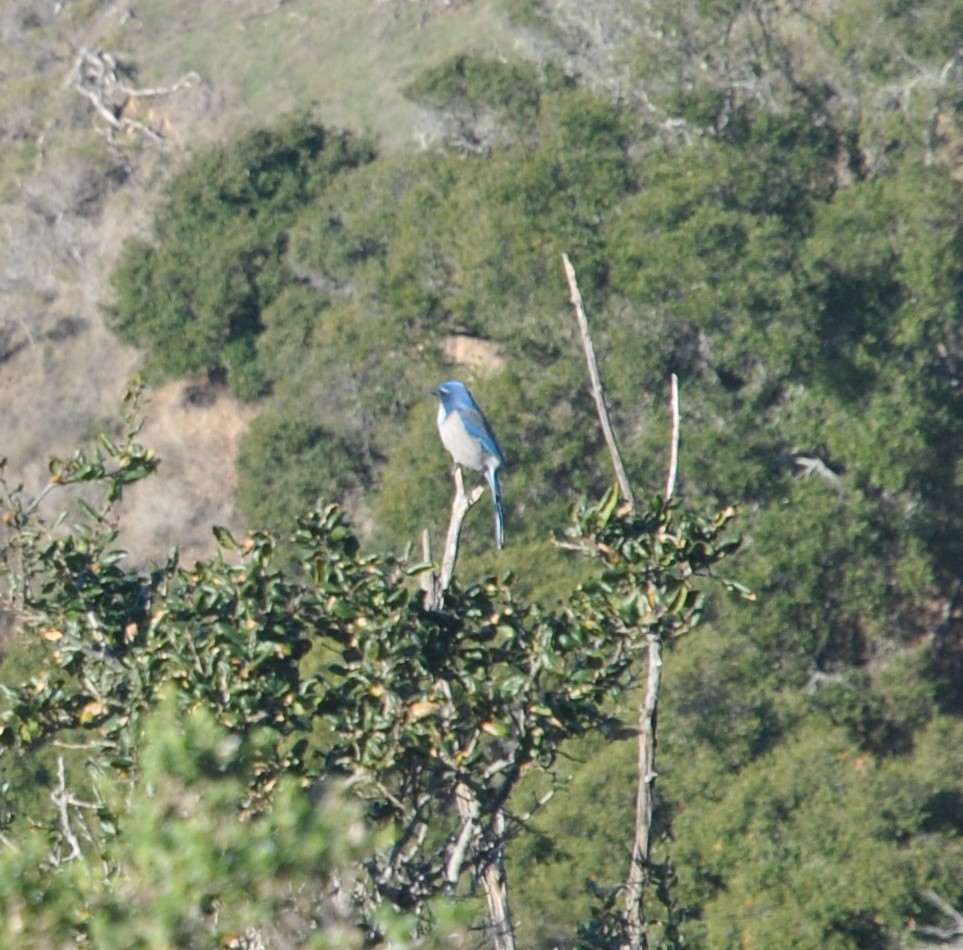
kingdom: Animalia
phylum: Chordata
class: Aves
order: Passeriformes
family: Corvidae
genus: Aphelocoma
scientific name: Aphelocoma californica
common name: California scrub-jay
